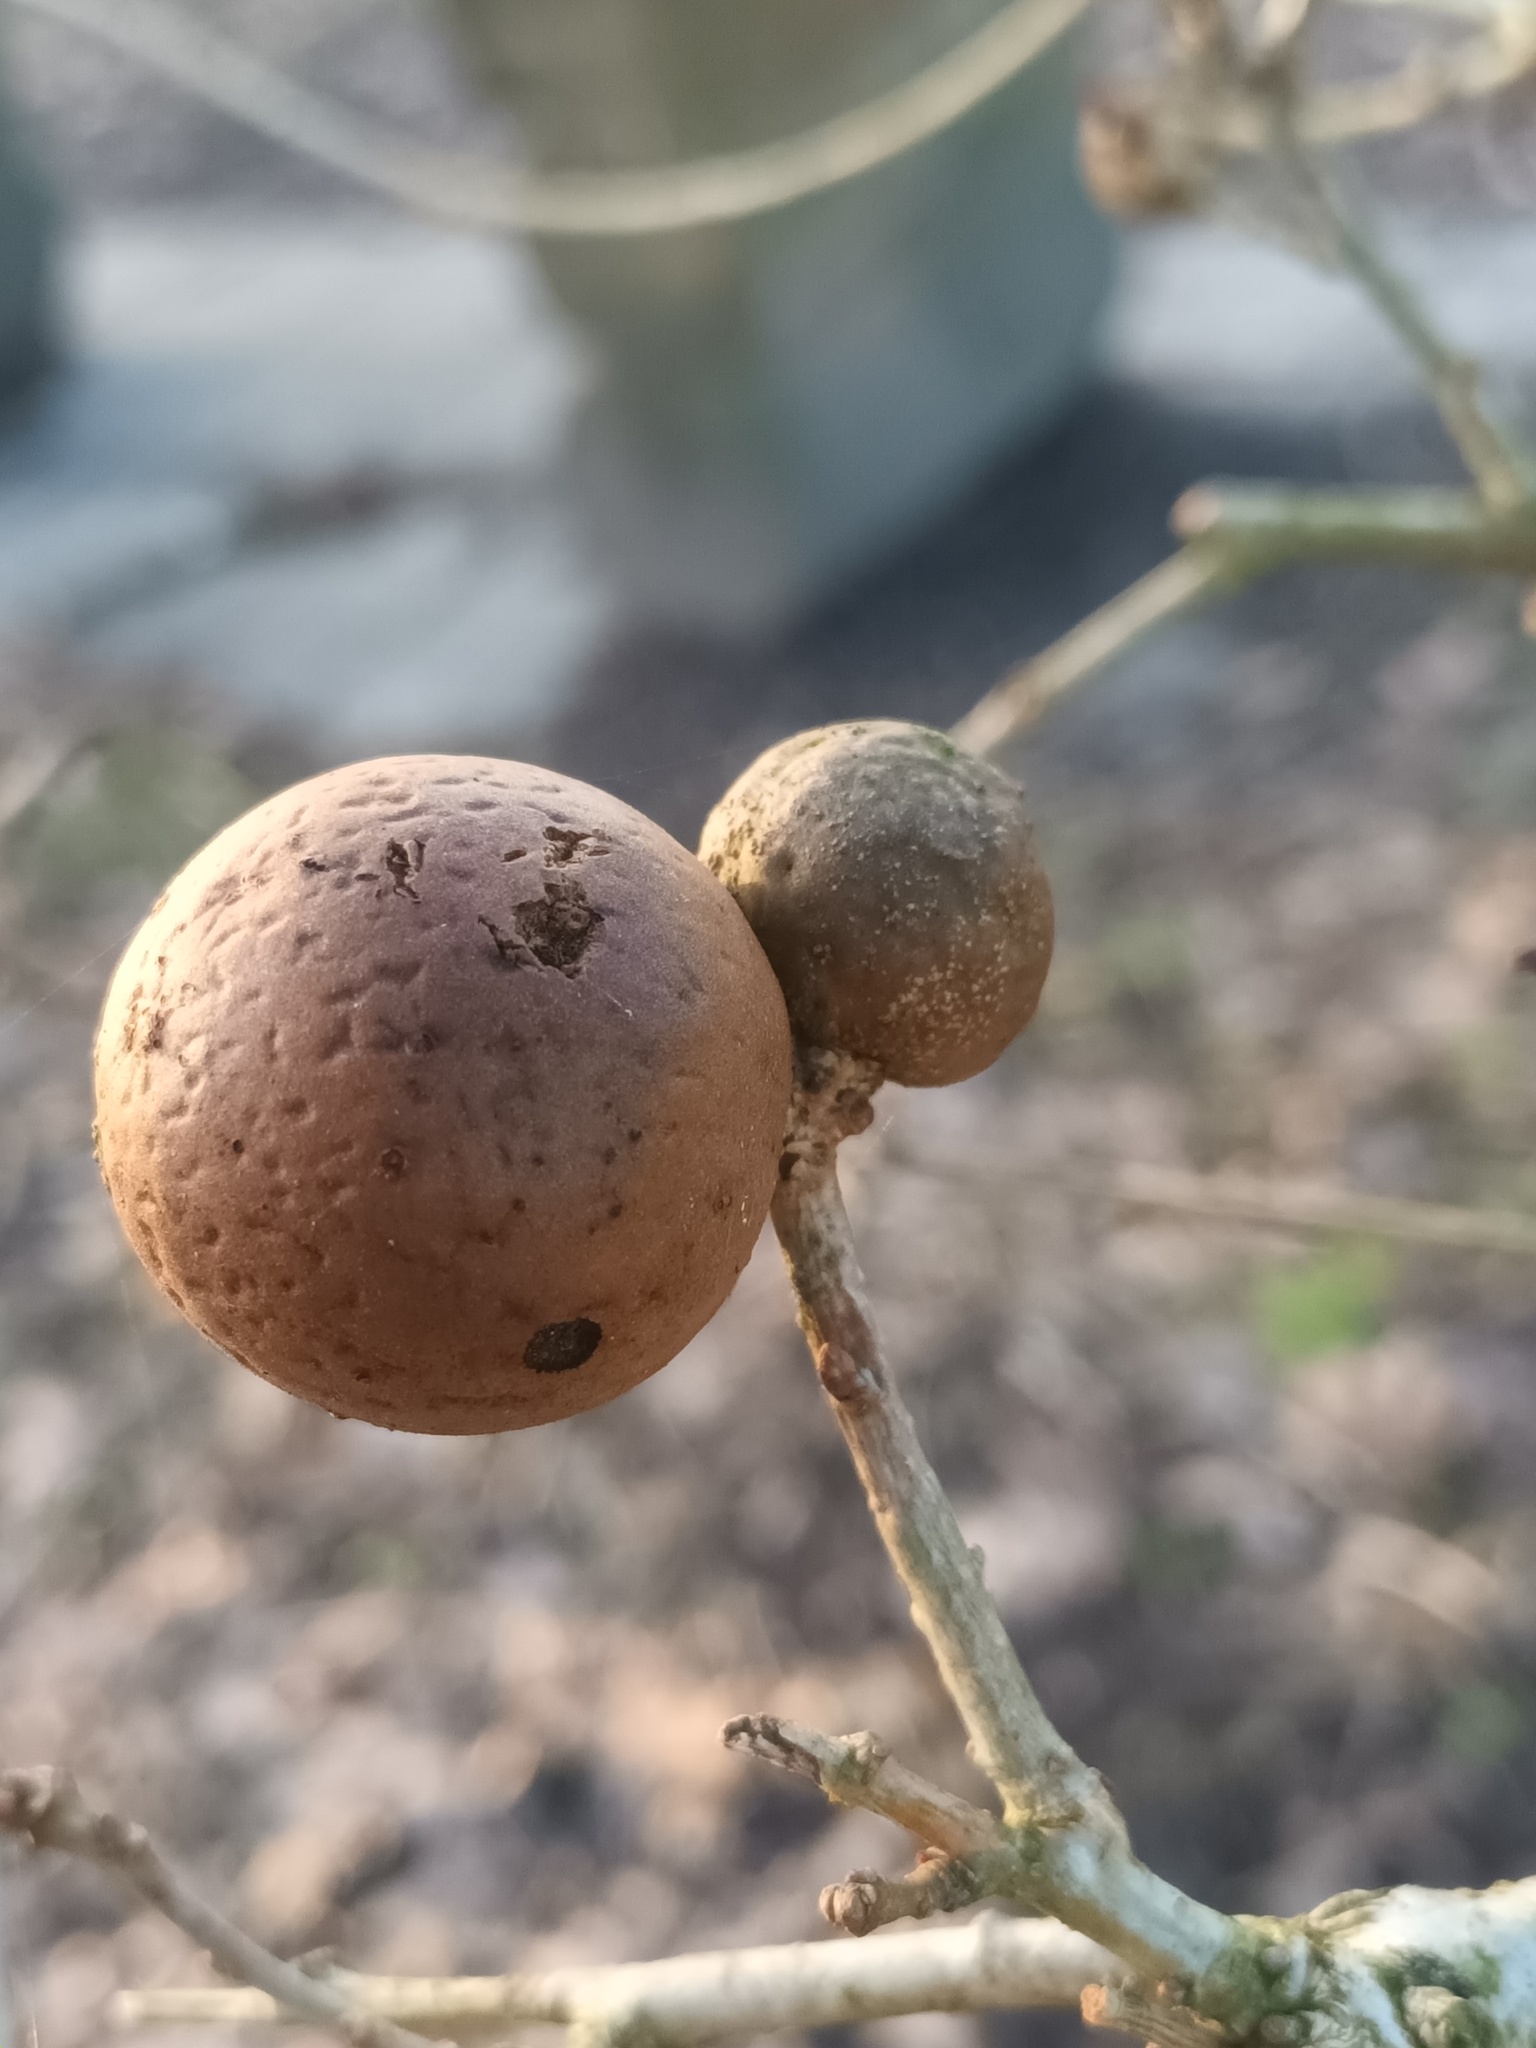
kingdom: Animalia
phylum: Arthropoda
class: Insecta
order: Hymenoptera
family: Cynipidae
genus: Andricus
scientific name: Andricus kollari
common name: Marble gall
